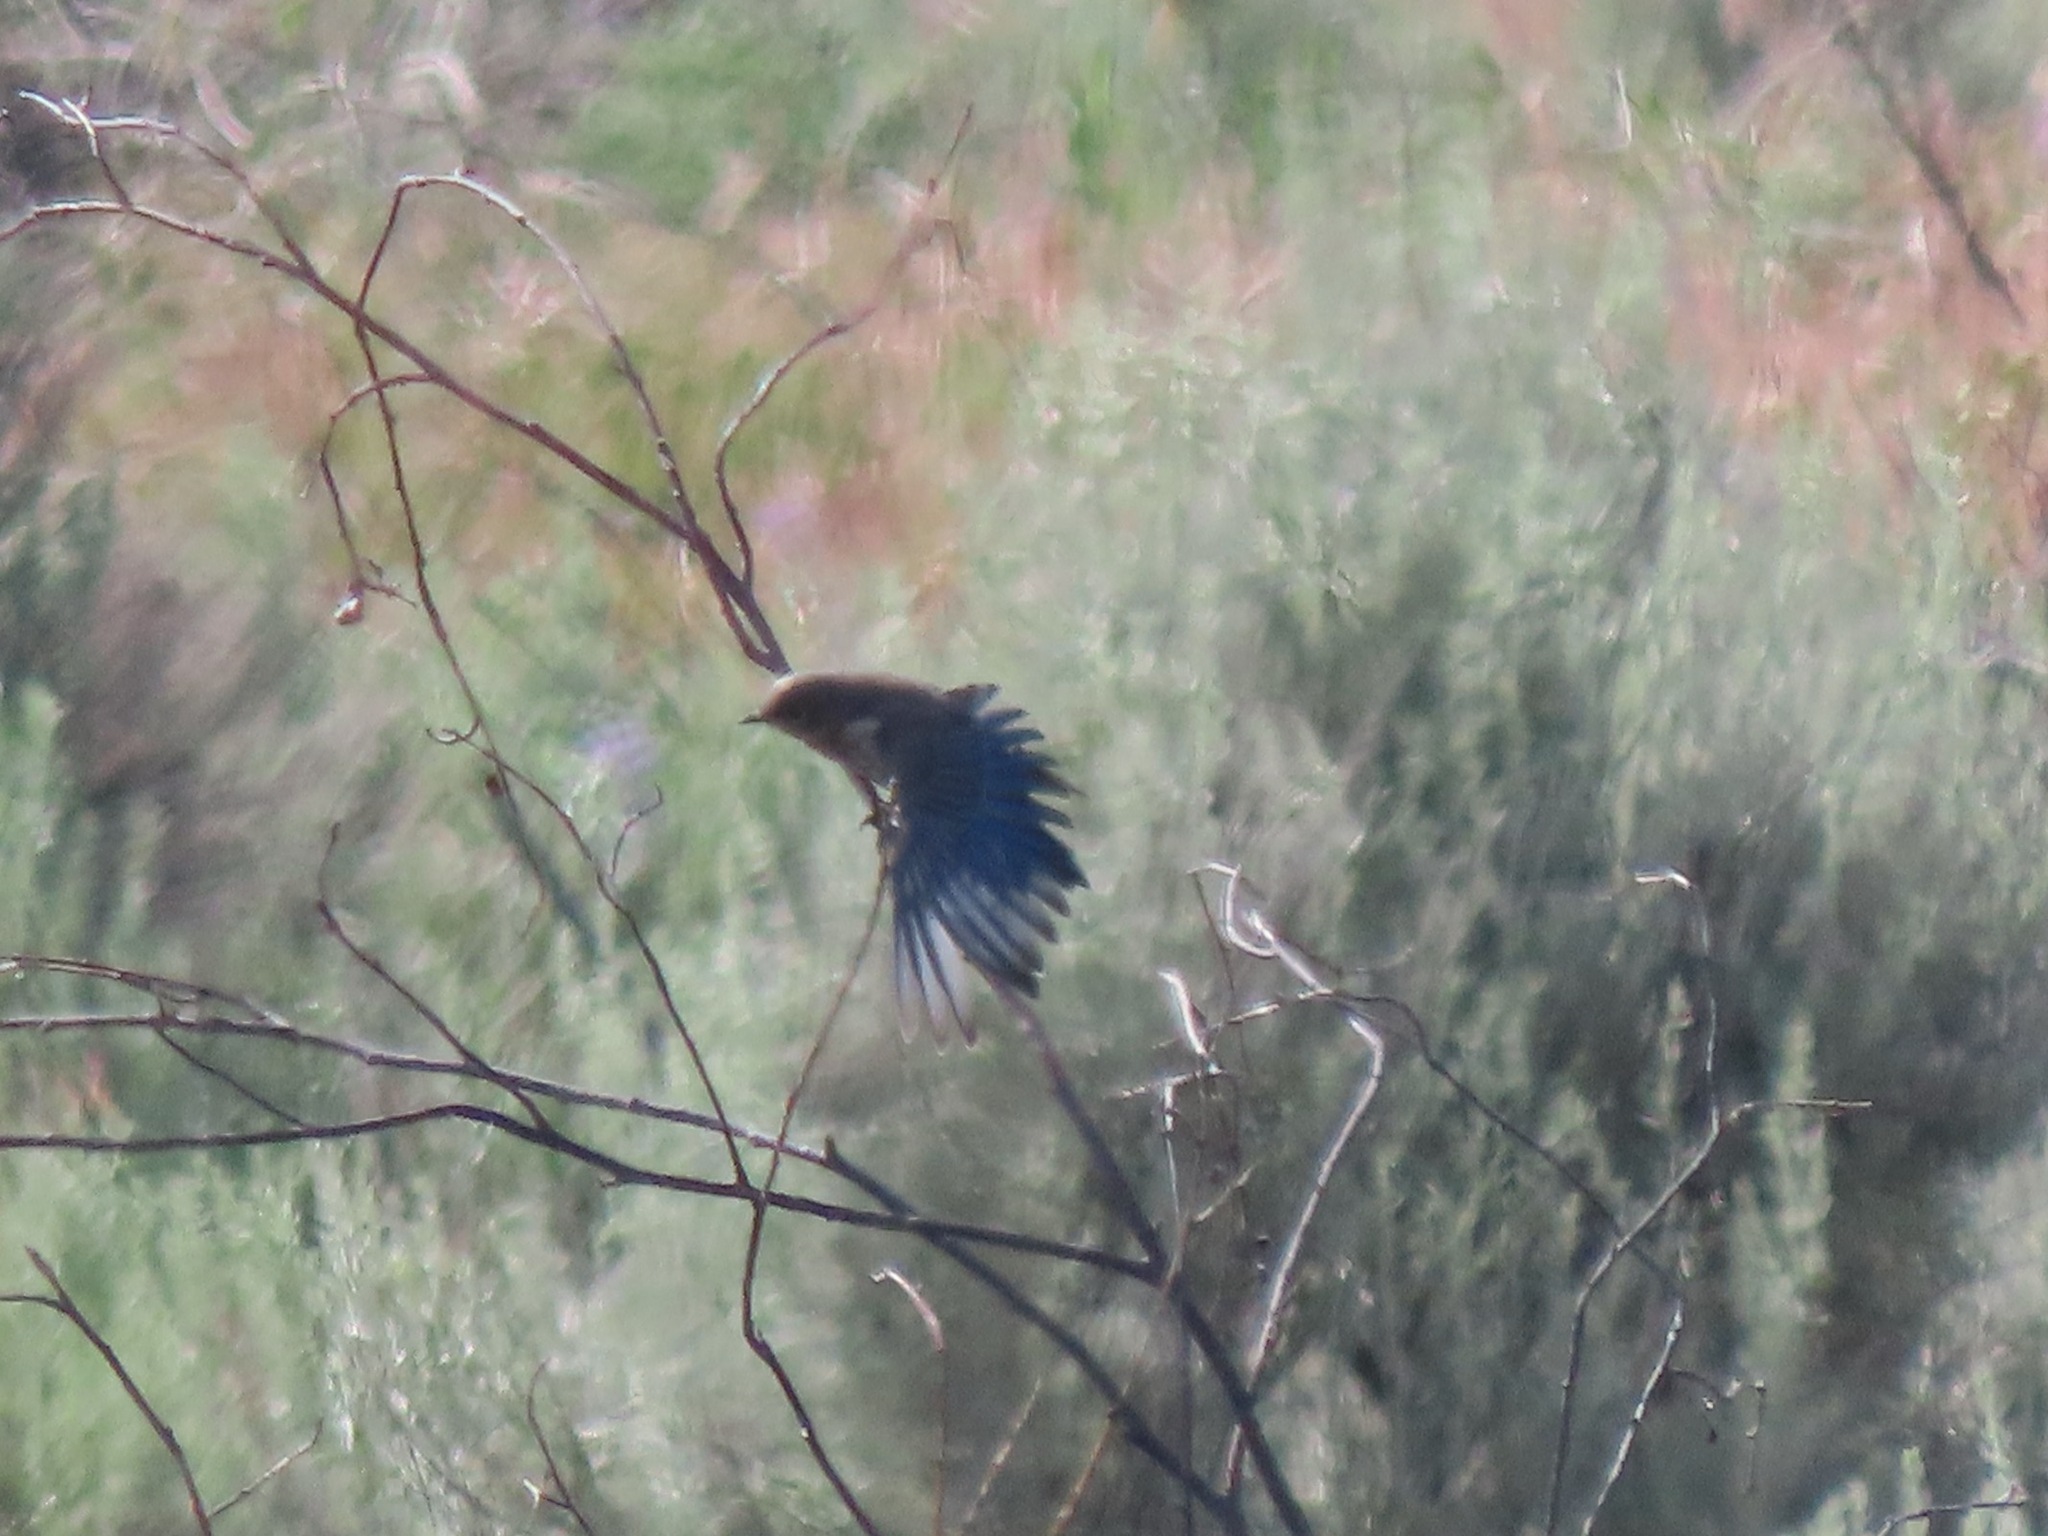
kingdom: Animalia
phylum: Chordata
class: Aves
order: Passeriformes
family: Turdidae
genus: Sialia
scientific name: Sialia mexicana
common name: Western bluebird
